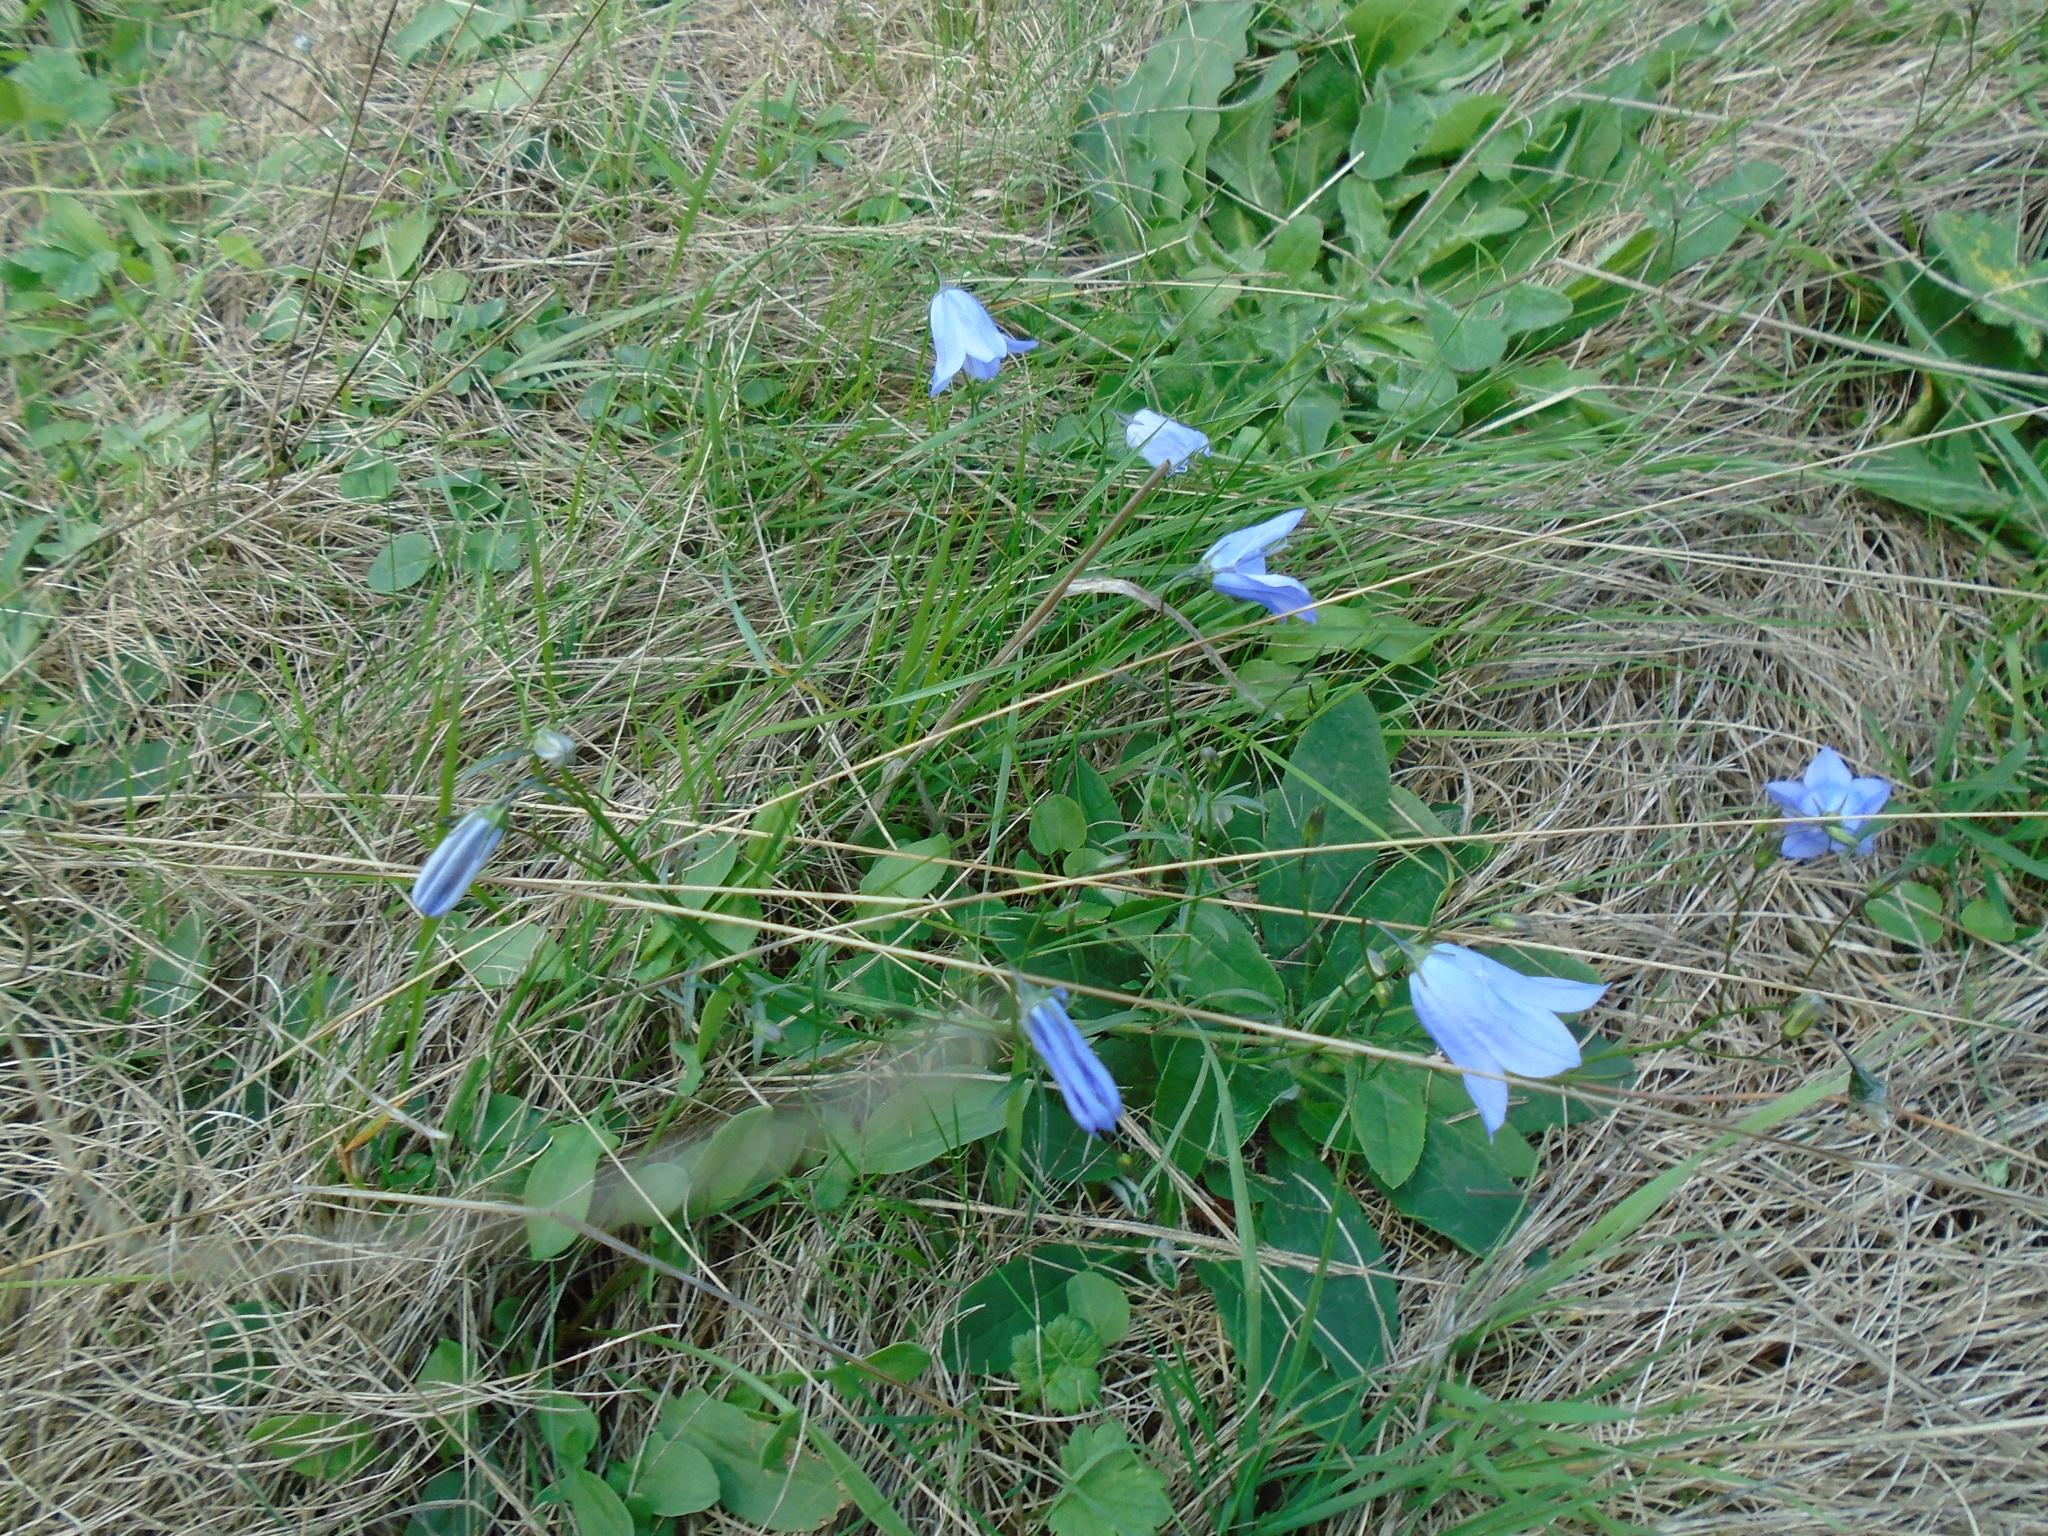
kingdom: Plantae
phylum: Tracheophyta
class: Magnoliopsida
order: Asterales
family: Campanulaceae
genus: Campanula
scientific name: Campanula rotundifolia
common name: Harebell
